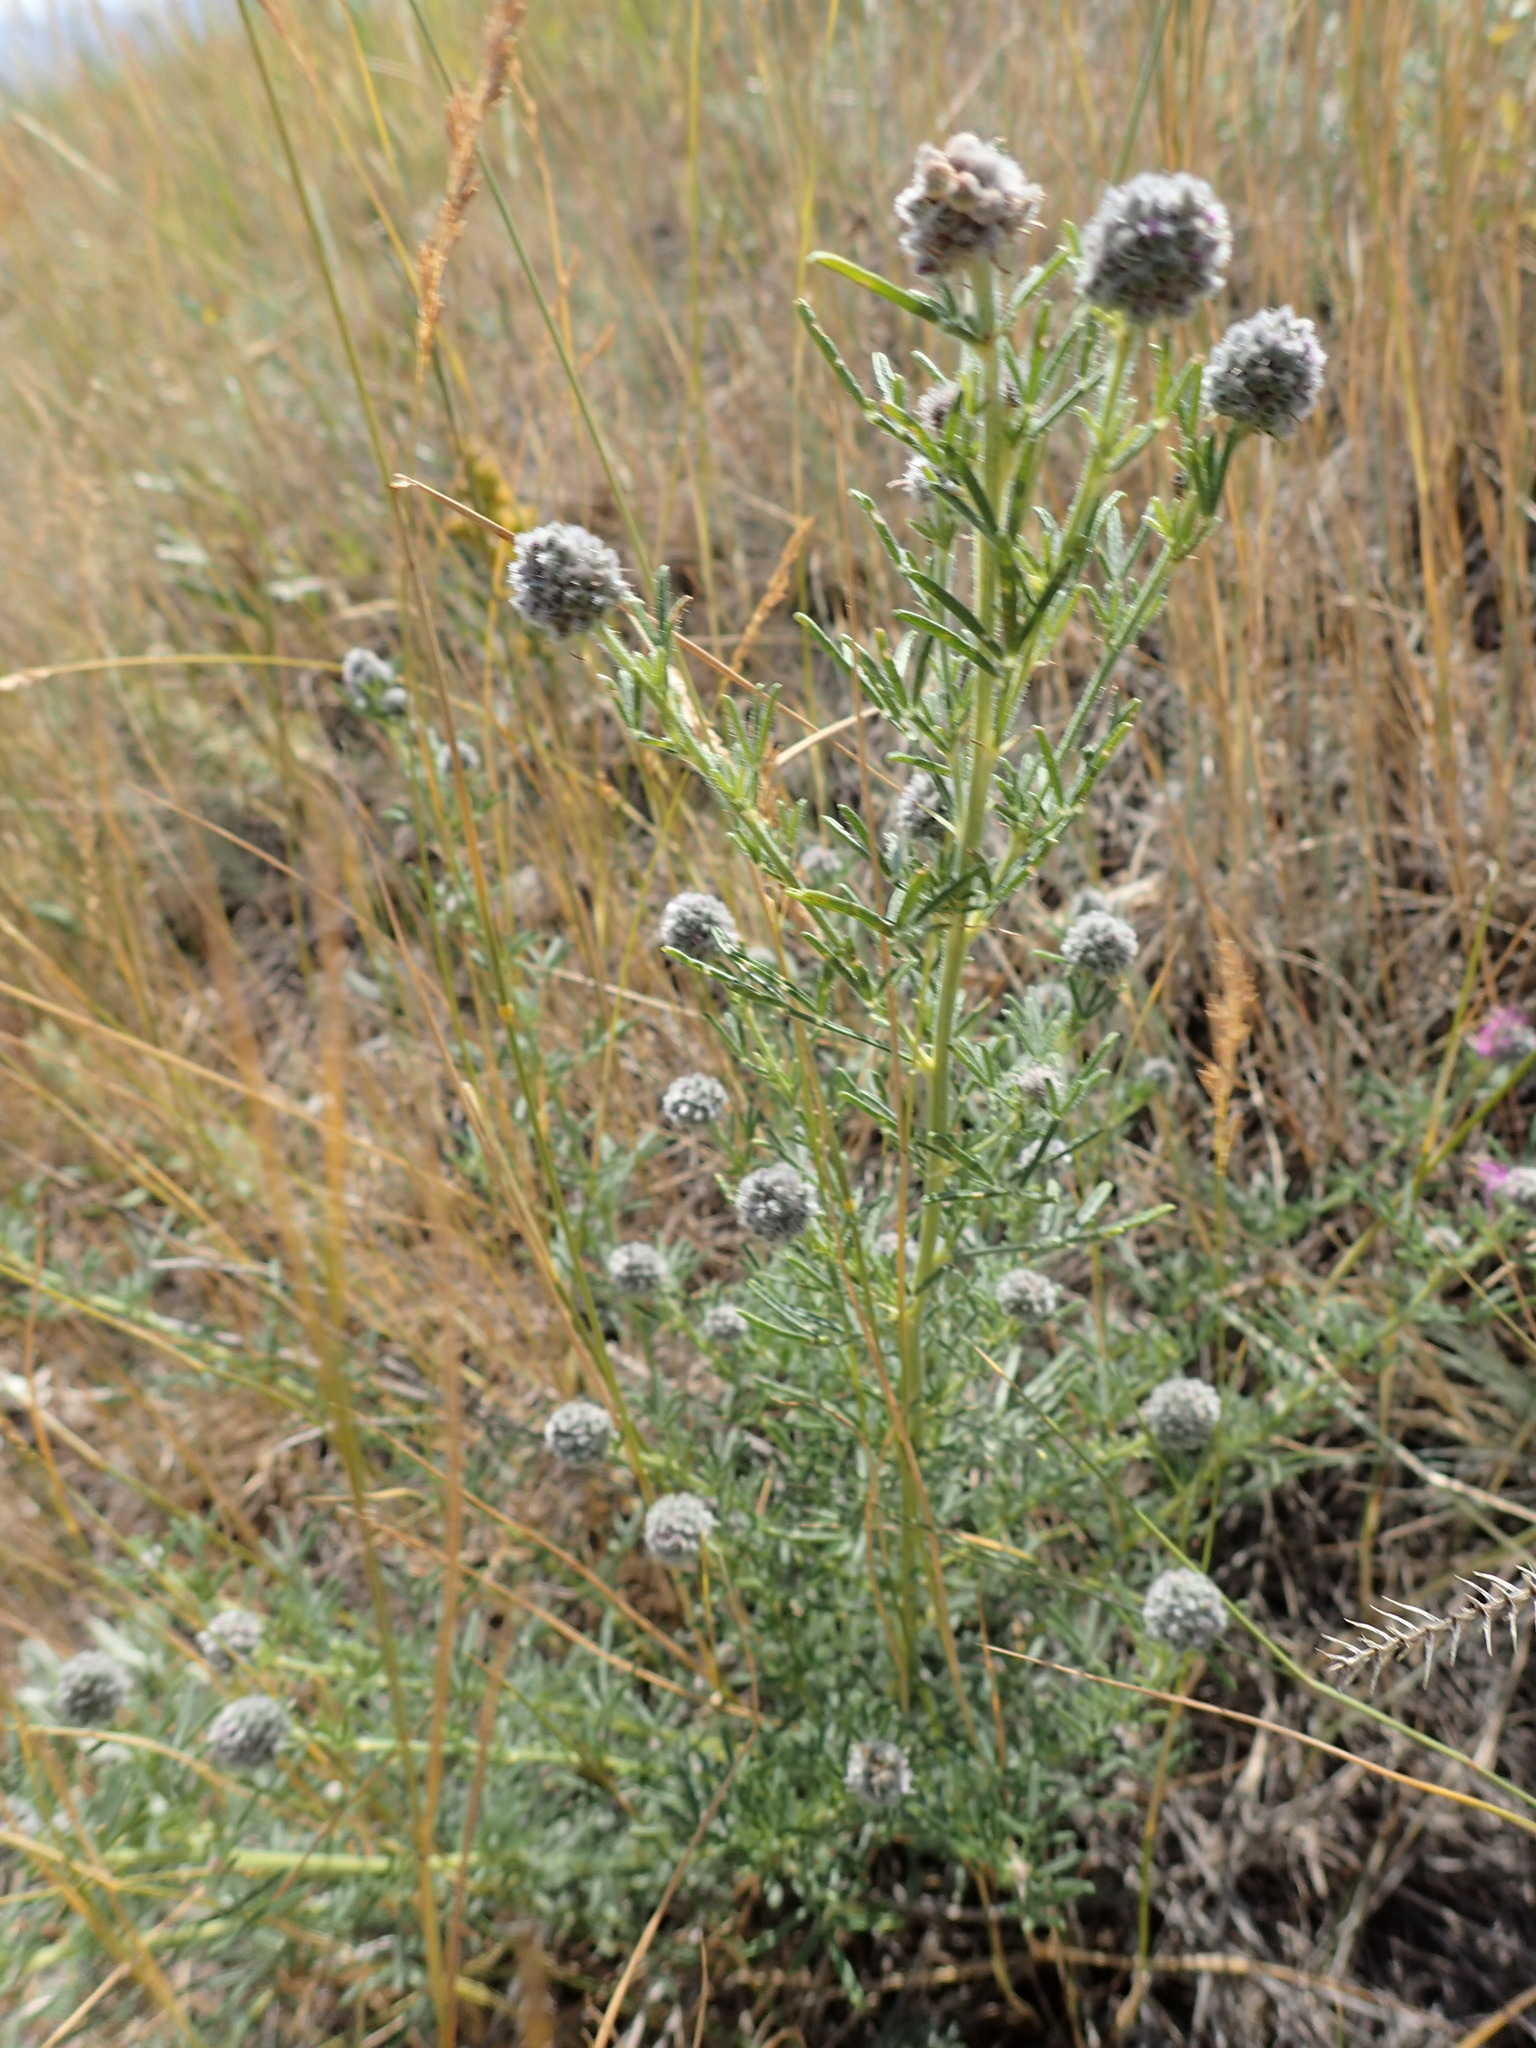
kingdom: Plantae
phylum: Tracheophyta
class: Magnoliopsida
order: Fabales
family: Fabaceae
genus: Dalea
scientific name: Dalea purpurea
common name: Purple prairie-clover
